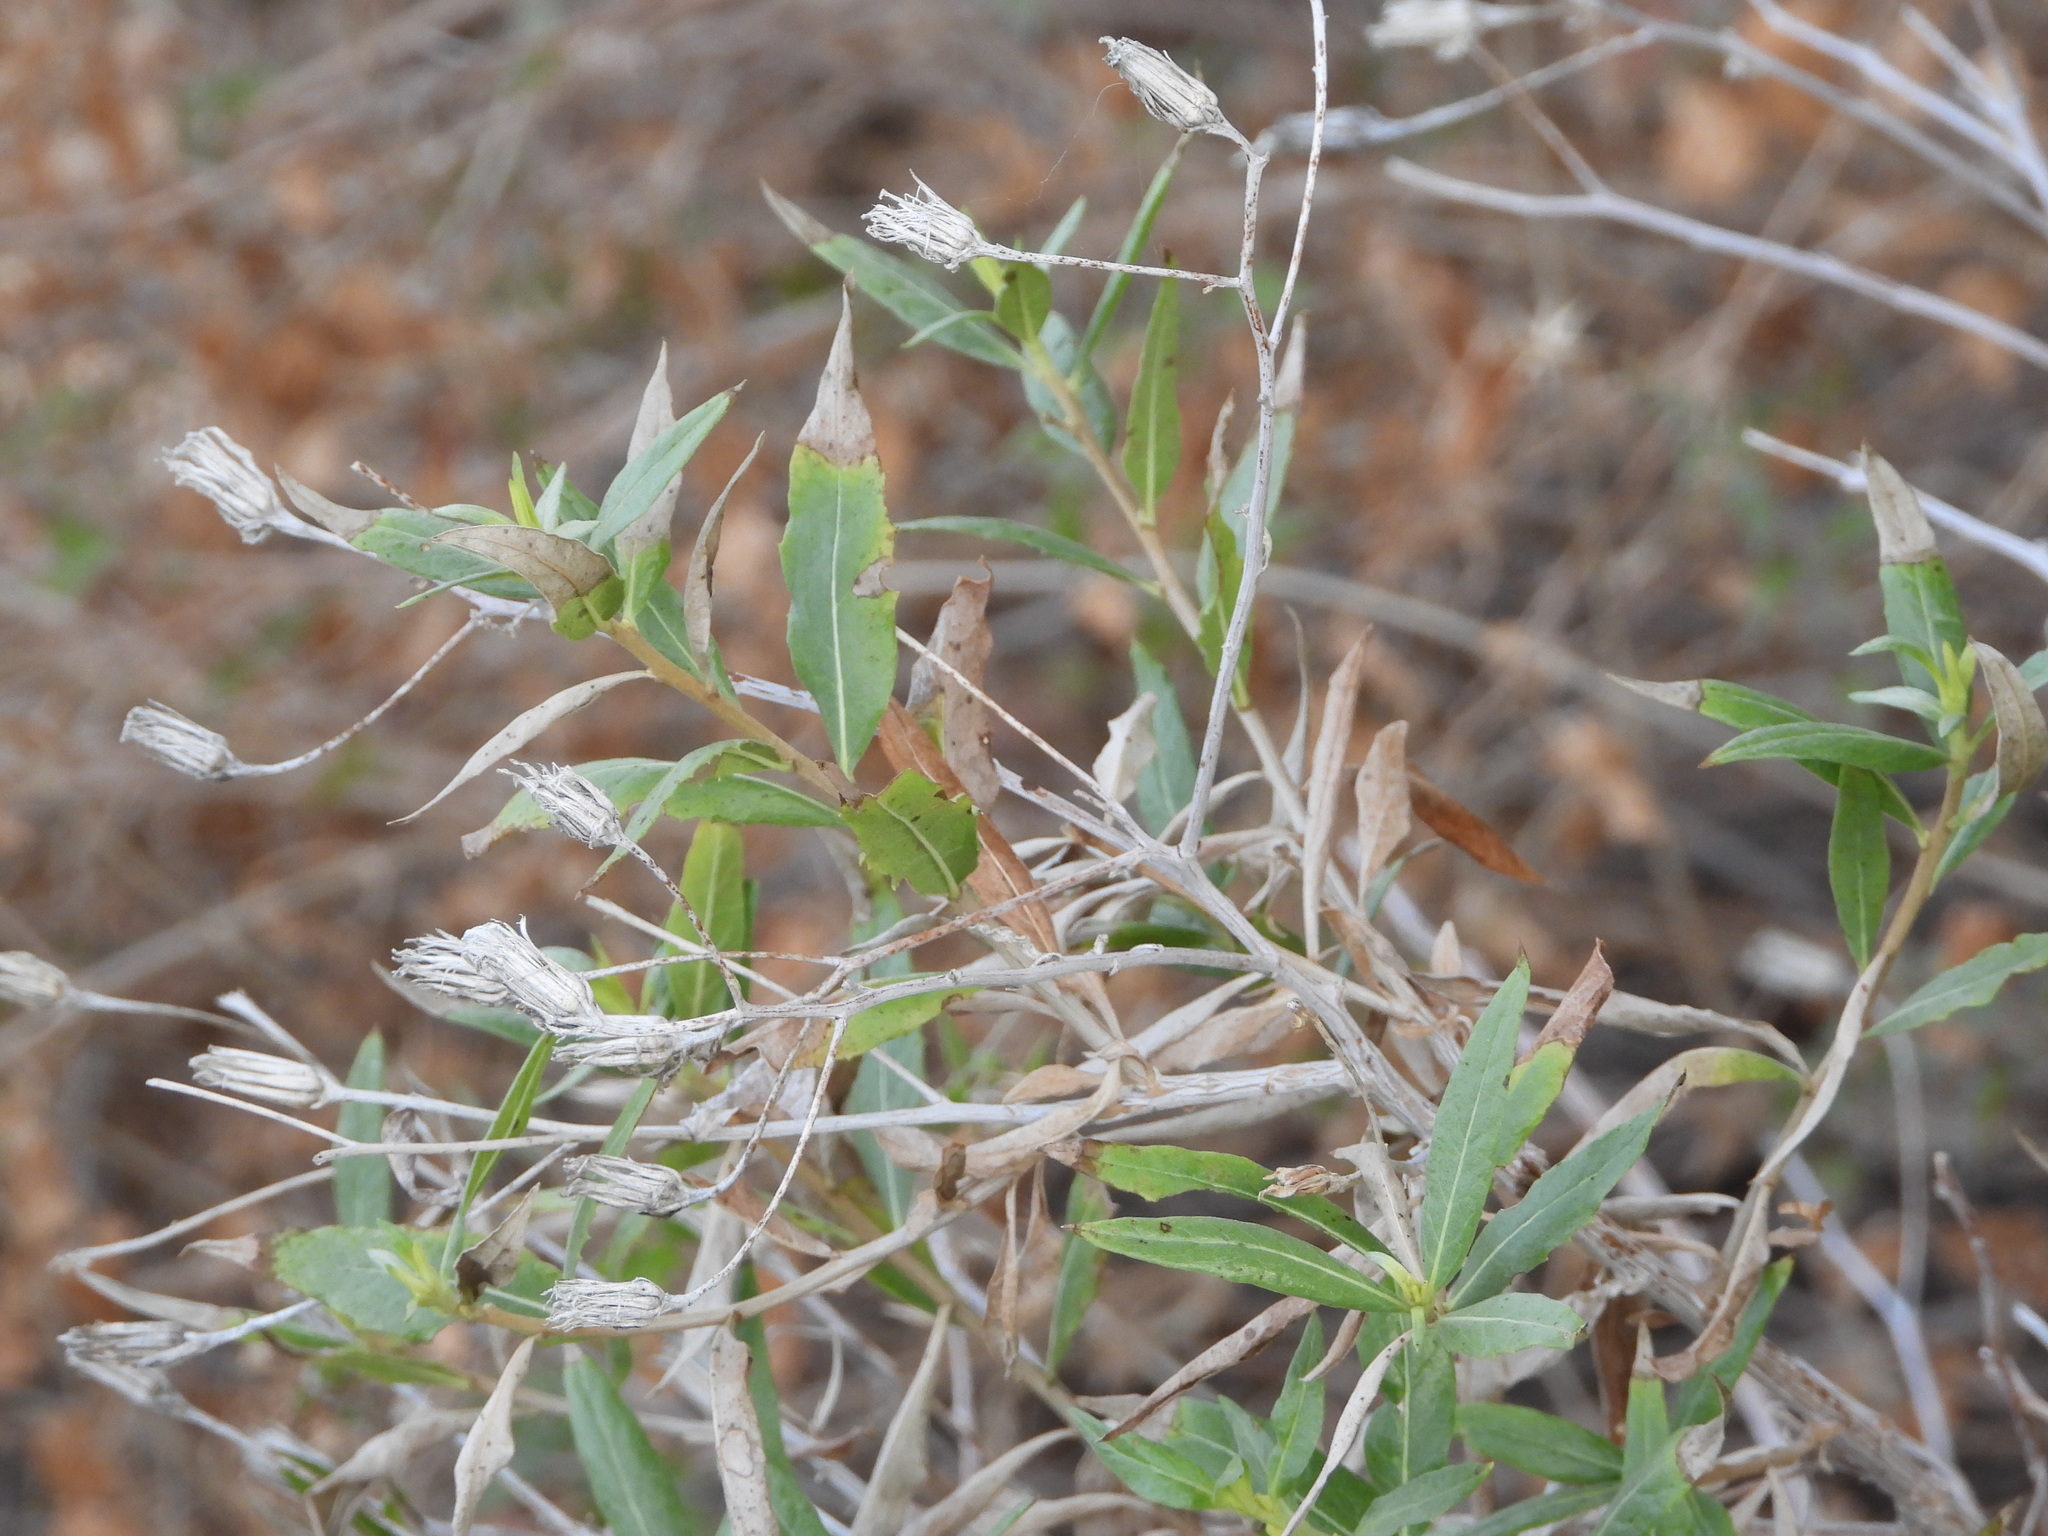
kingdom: Plantae
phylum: Tracheophyta
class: Magnoliopsida
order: Asterales
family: Asteraceae
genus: Trixis
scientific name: Trixis californica
